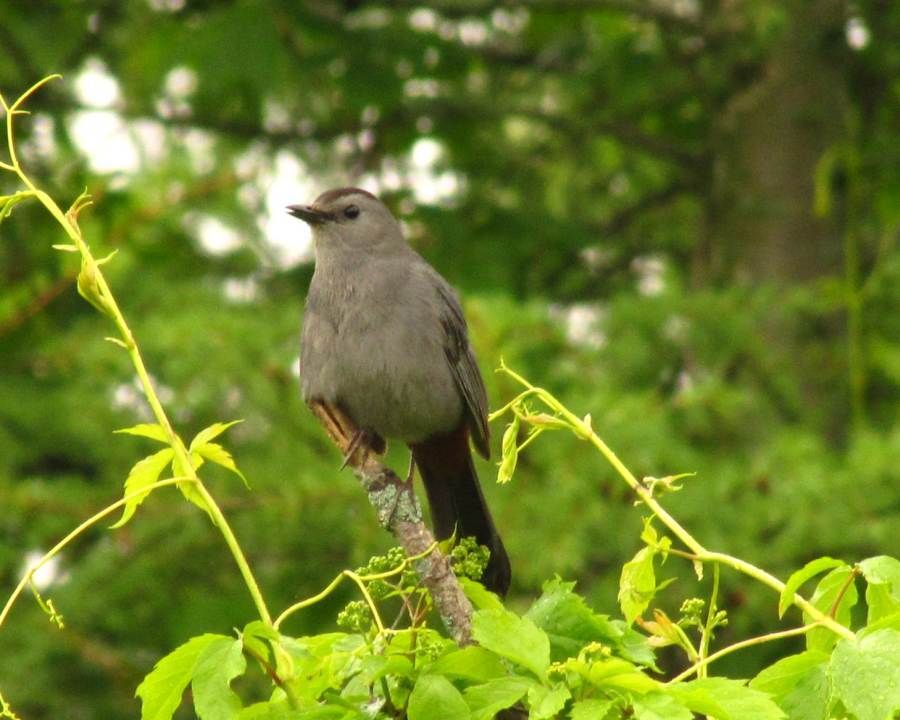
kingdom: Animalia
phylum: Chordata
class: Aves
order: Passeriformes
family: Mimidae
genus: Dumetella
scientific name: Dumetella carolinensis
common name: Gray catbird
